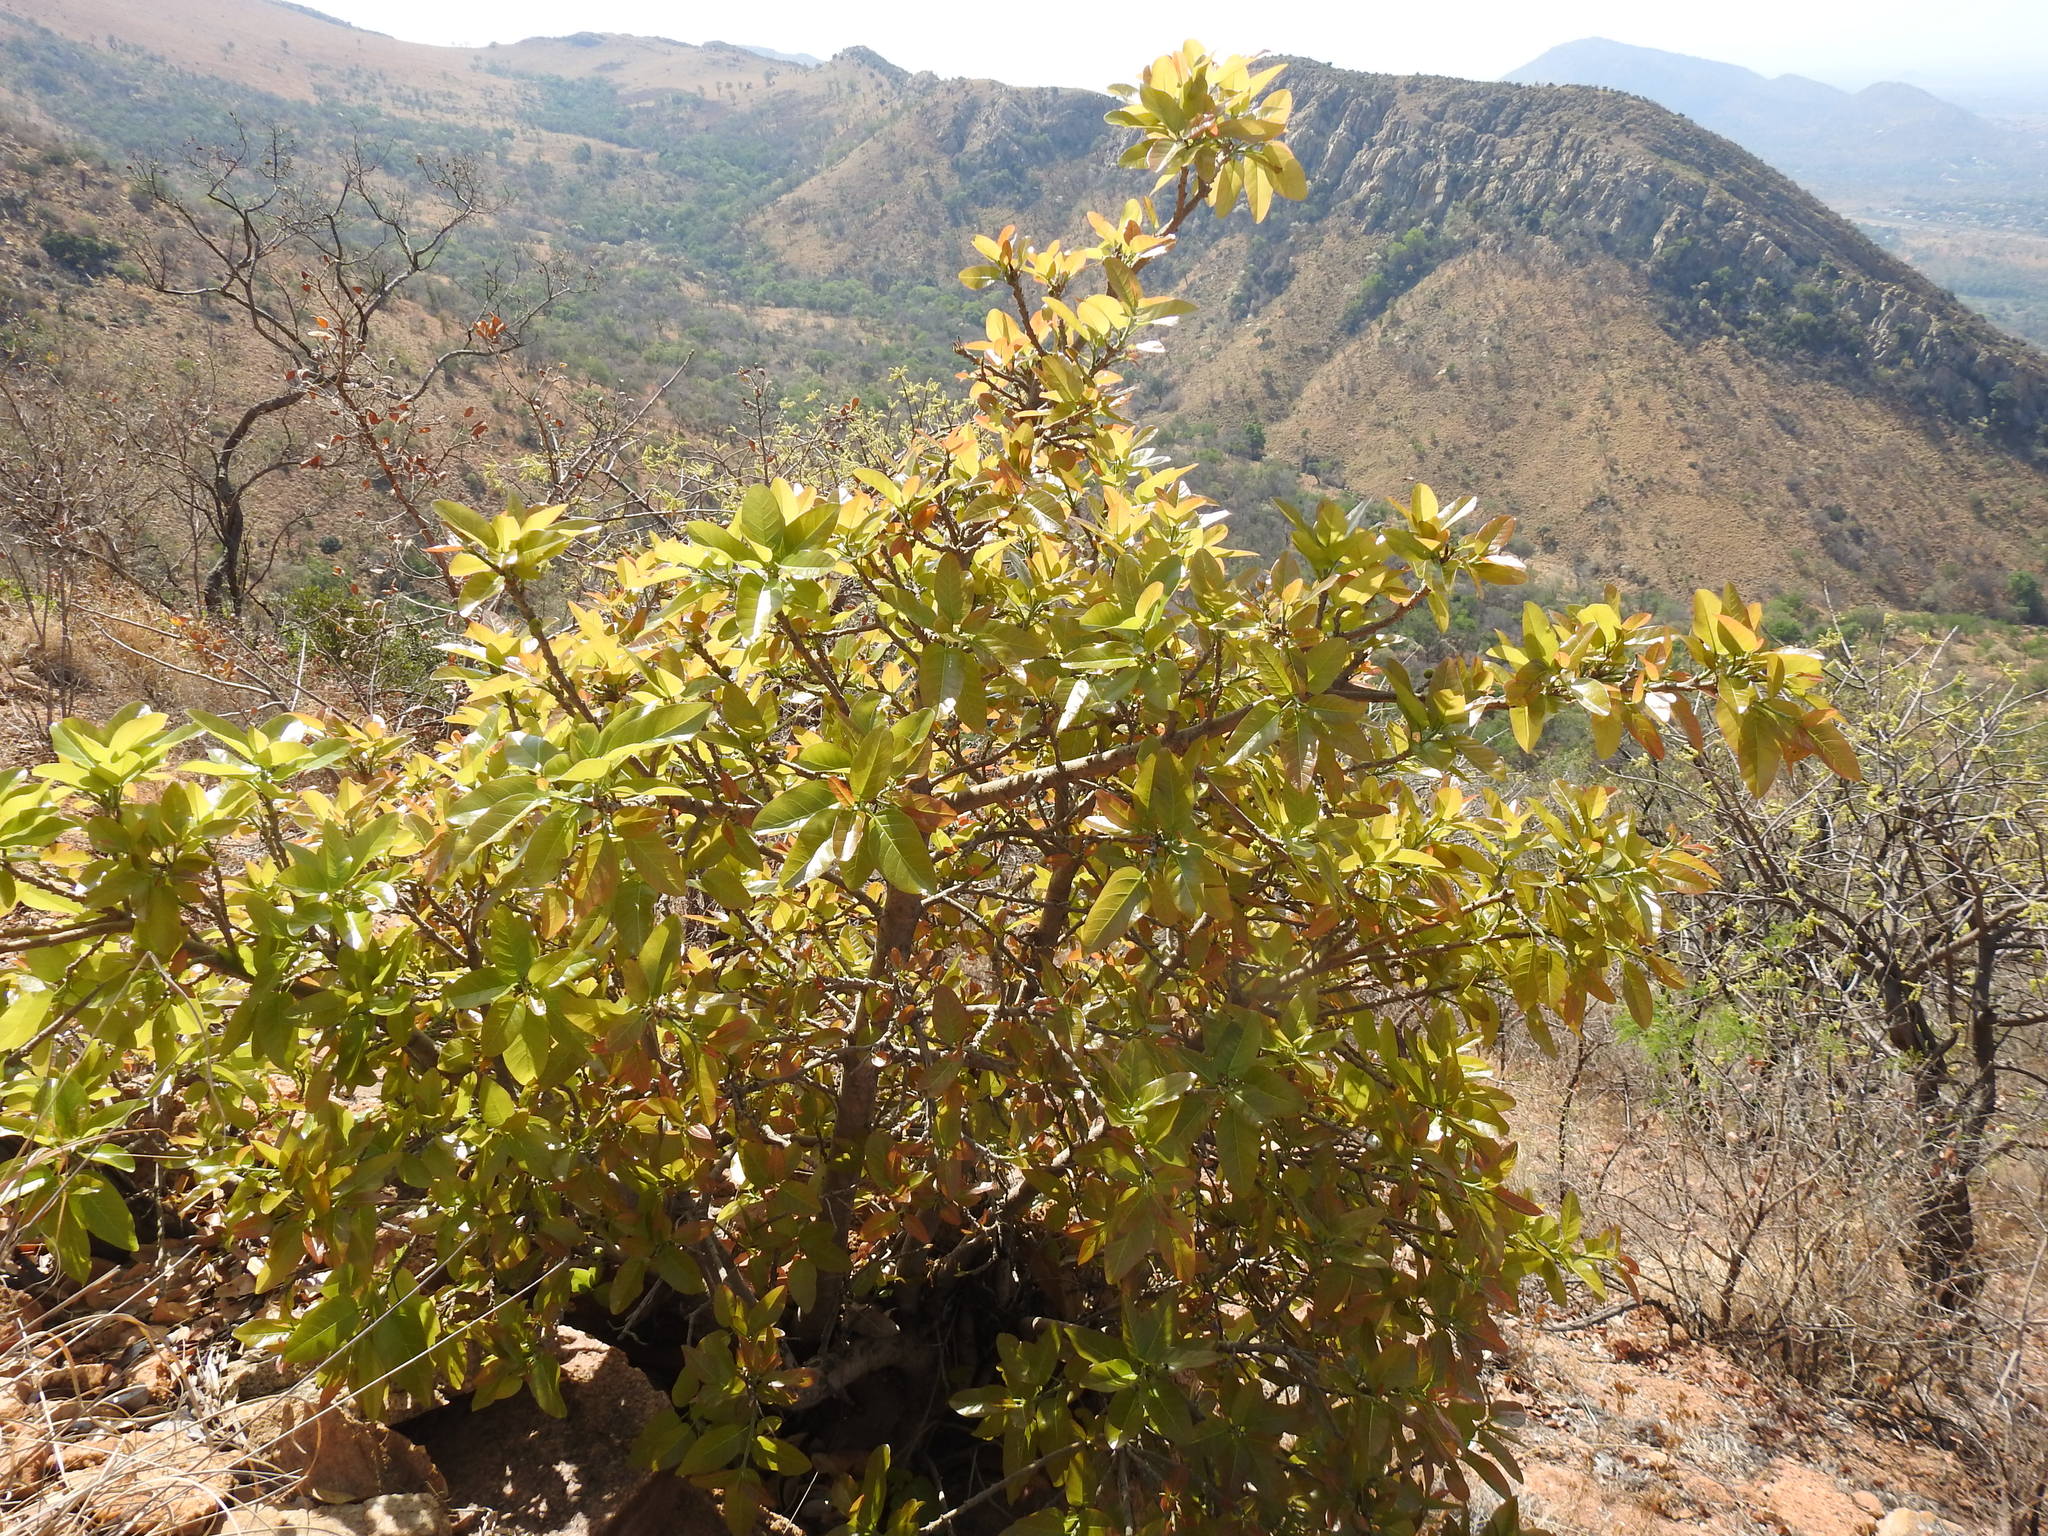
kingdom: Plantae
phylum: Tracheophyta
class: Magnoliopsida
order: Rosales
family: Moraceae
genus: Ficus
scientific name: Ficus ingens
